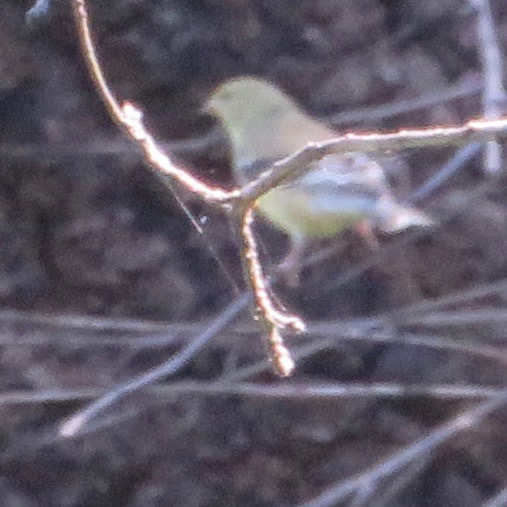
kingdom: Animalia
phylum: Chordata
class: Aves
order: Passeriformes
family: Fringillidae
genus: Spinus
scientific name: Spinus
